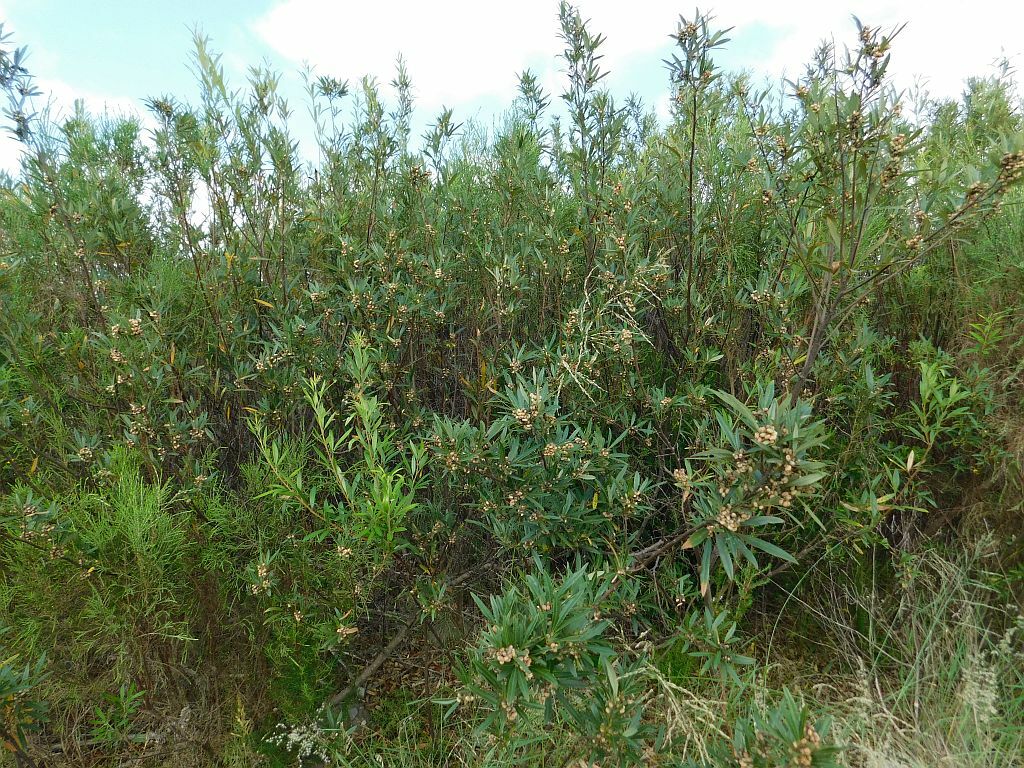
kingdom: Plantae
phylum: Tracheophyta
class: Magnoliopsida
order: Sapindales
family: Anacardiaceae
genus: Searsia
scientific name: Searsia angustifolia
